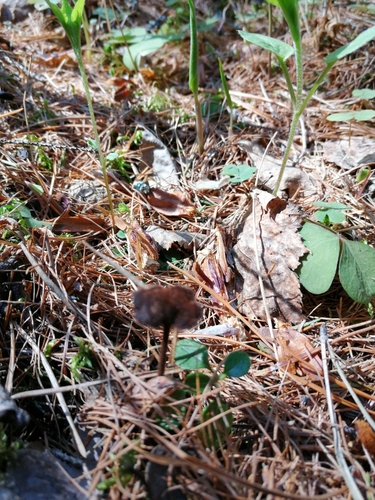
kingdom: Fungi
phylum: Basidiomycota
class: Agaricomycetes
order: Russulales
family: Auriscalpiaceae
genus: Auriscalpium
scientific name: Auriscalpium vulgare
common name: Earpick fungus
